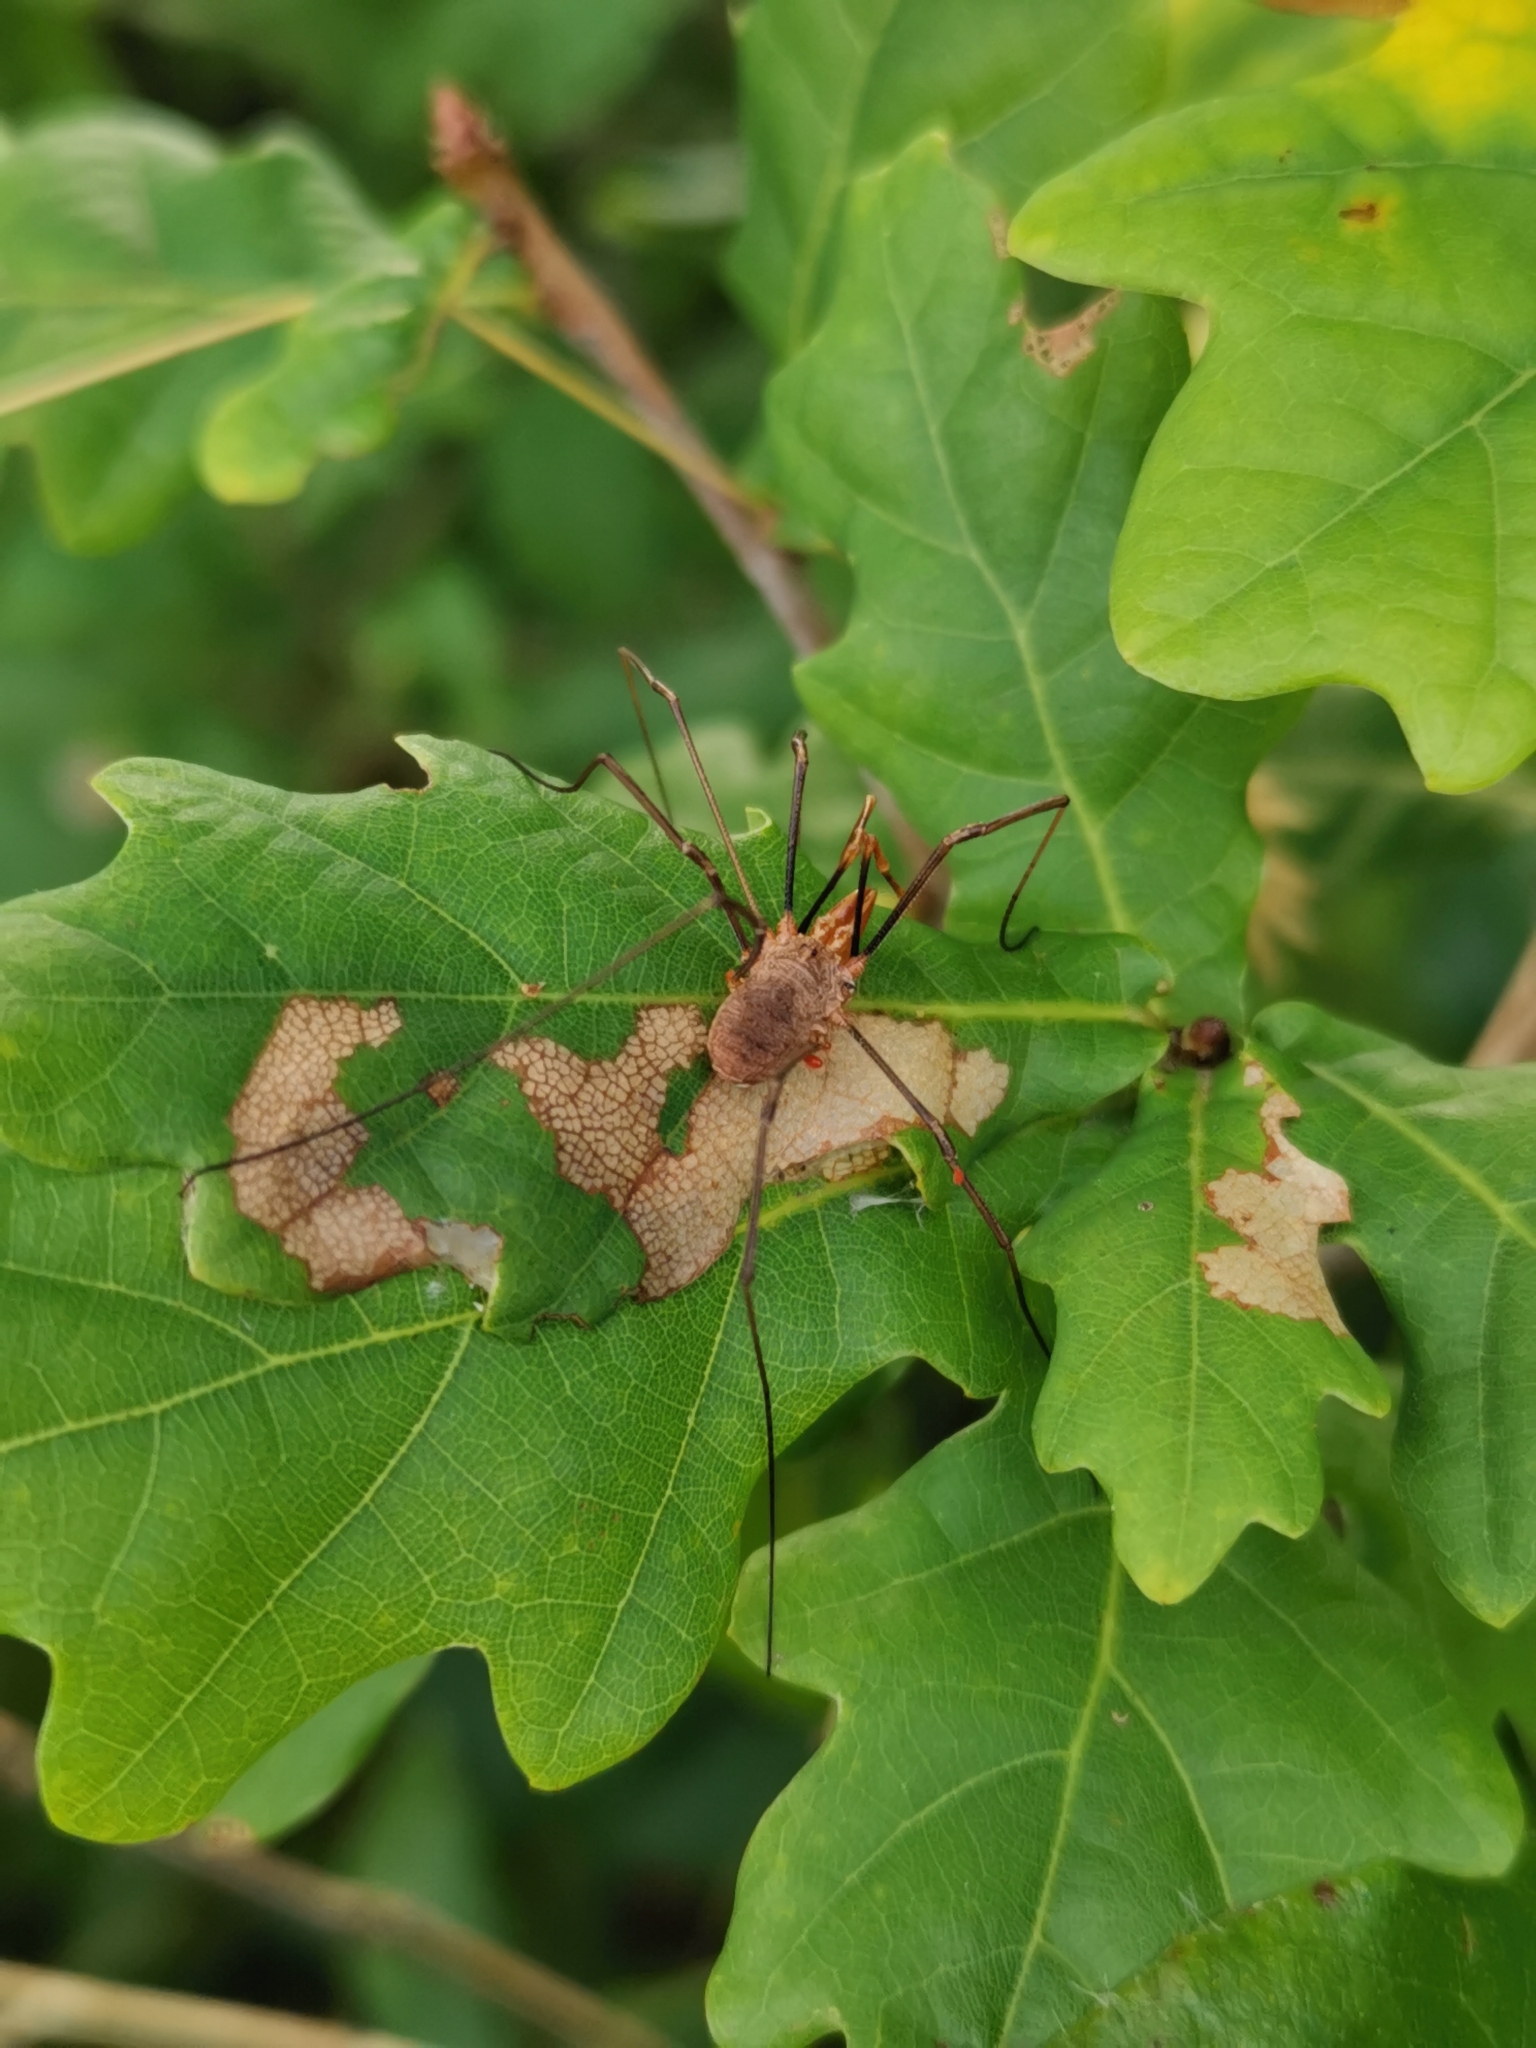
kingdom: Animalia
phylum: Arthropoda
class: Arachnida
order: Opiliones
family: Phalangiidae
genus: Phalangium
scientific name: Phalangium opilio
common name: Daddy longleg
